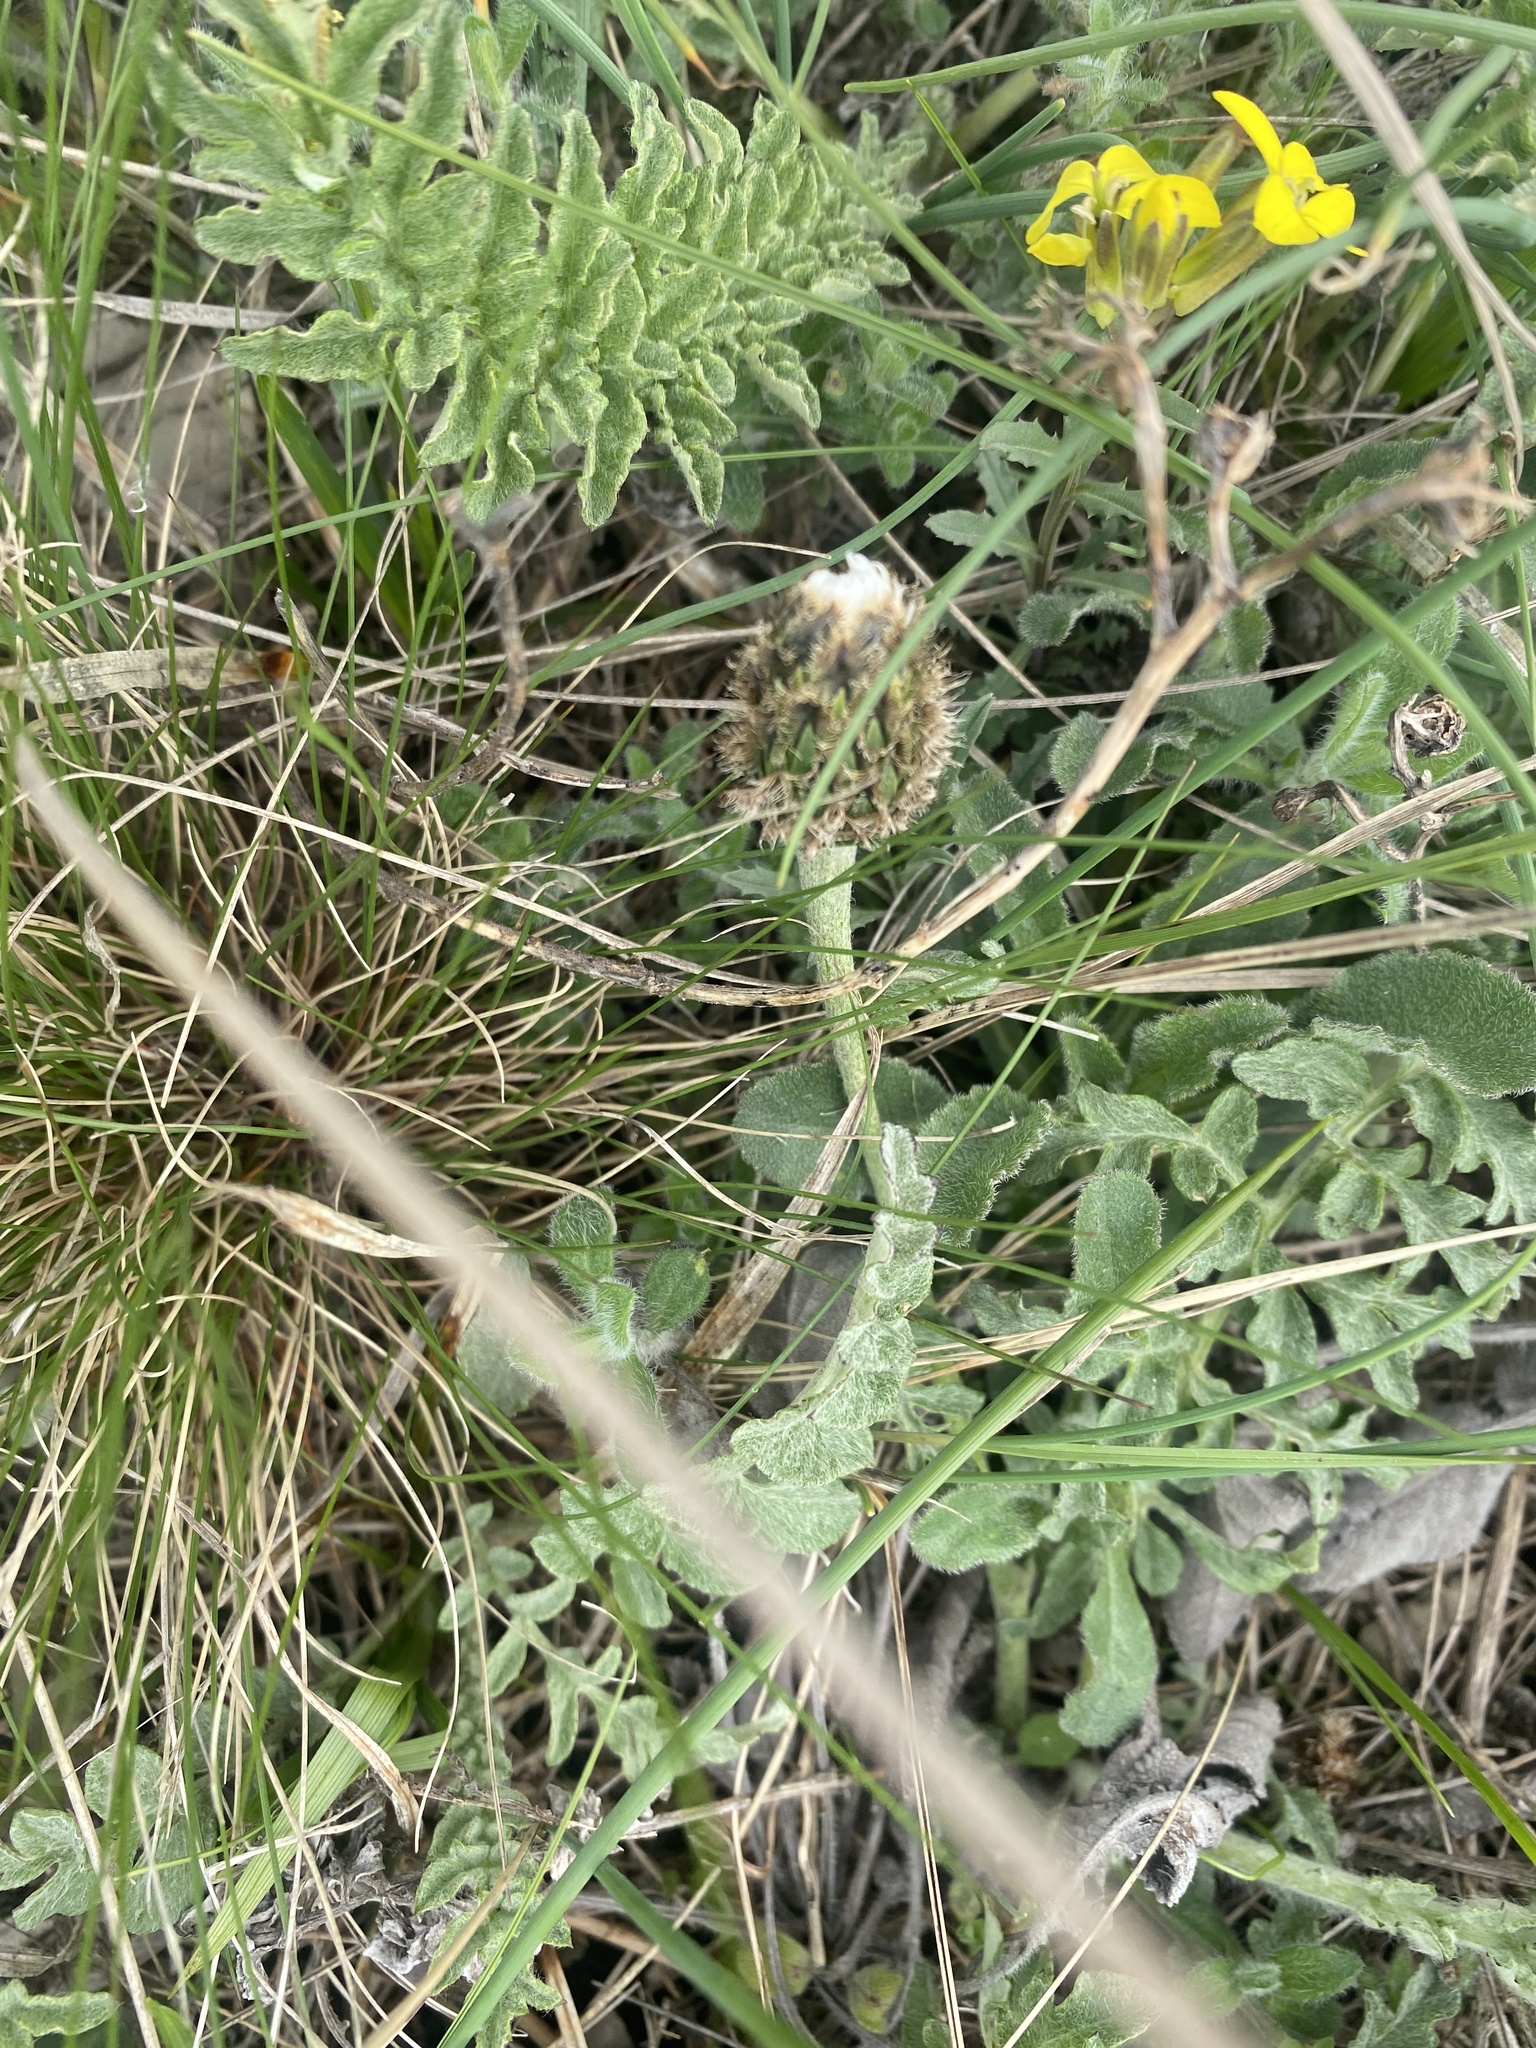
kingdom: Plantae
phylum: Tracheophyta
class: Magnoliopsida
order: Asterales
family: Asteraceae
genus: Psephellus
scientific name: Psephellus declinatus
